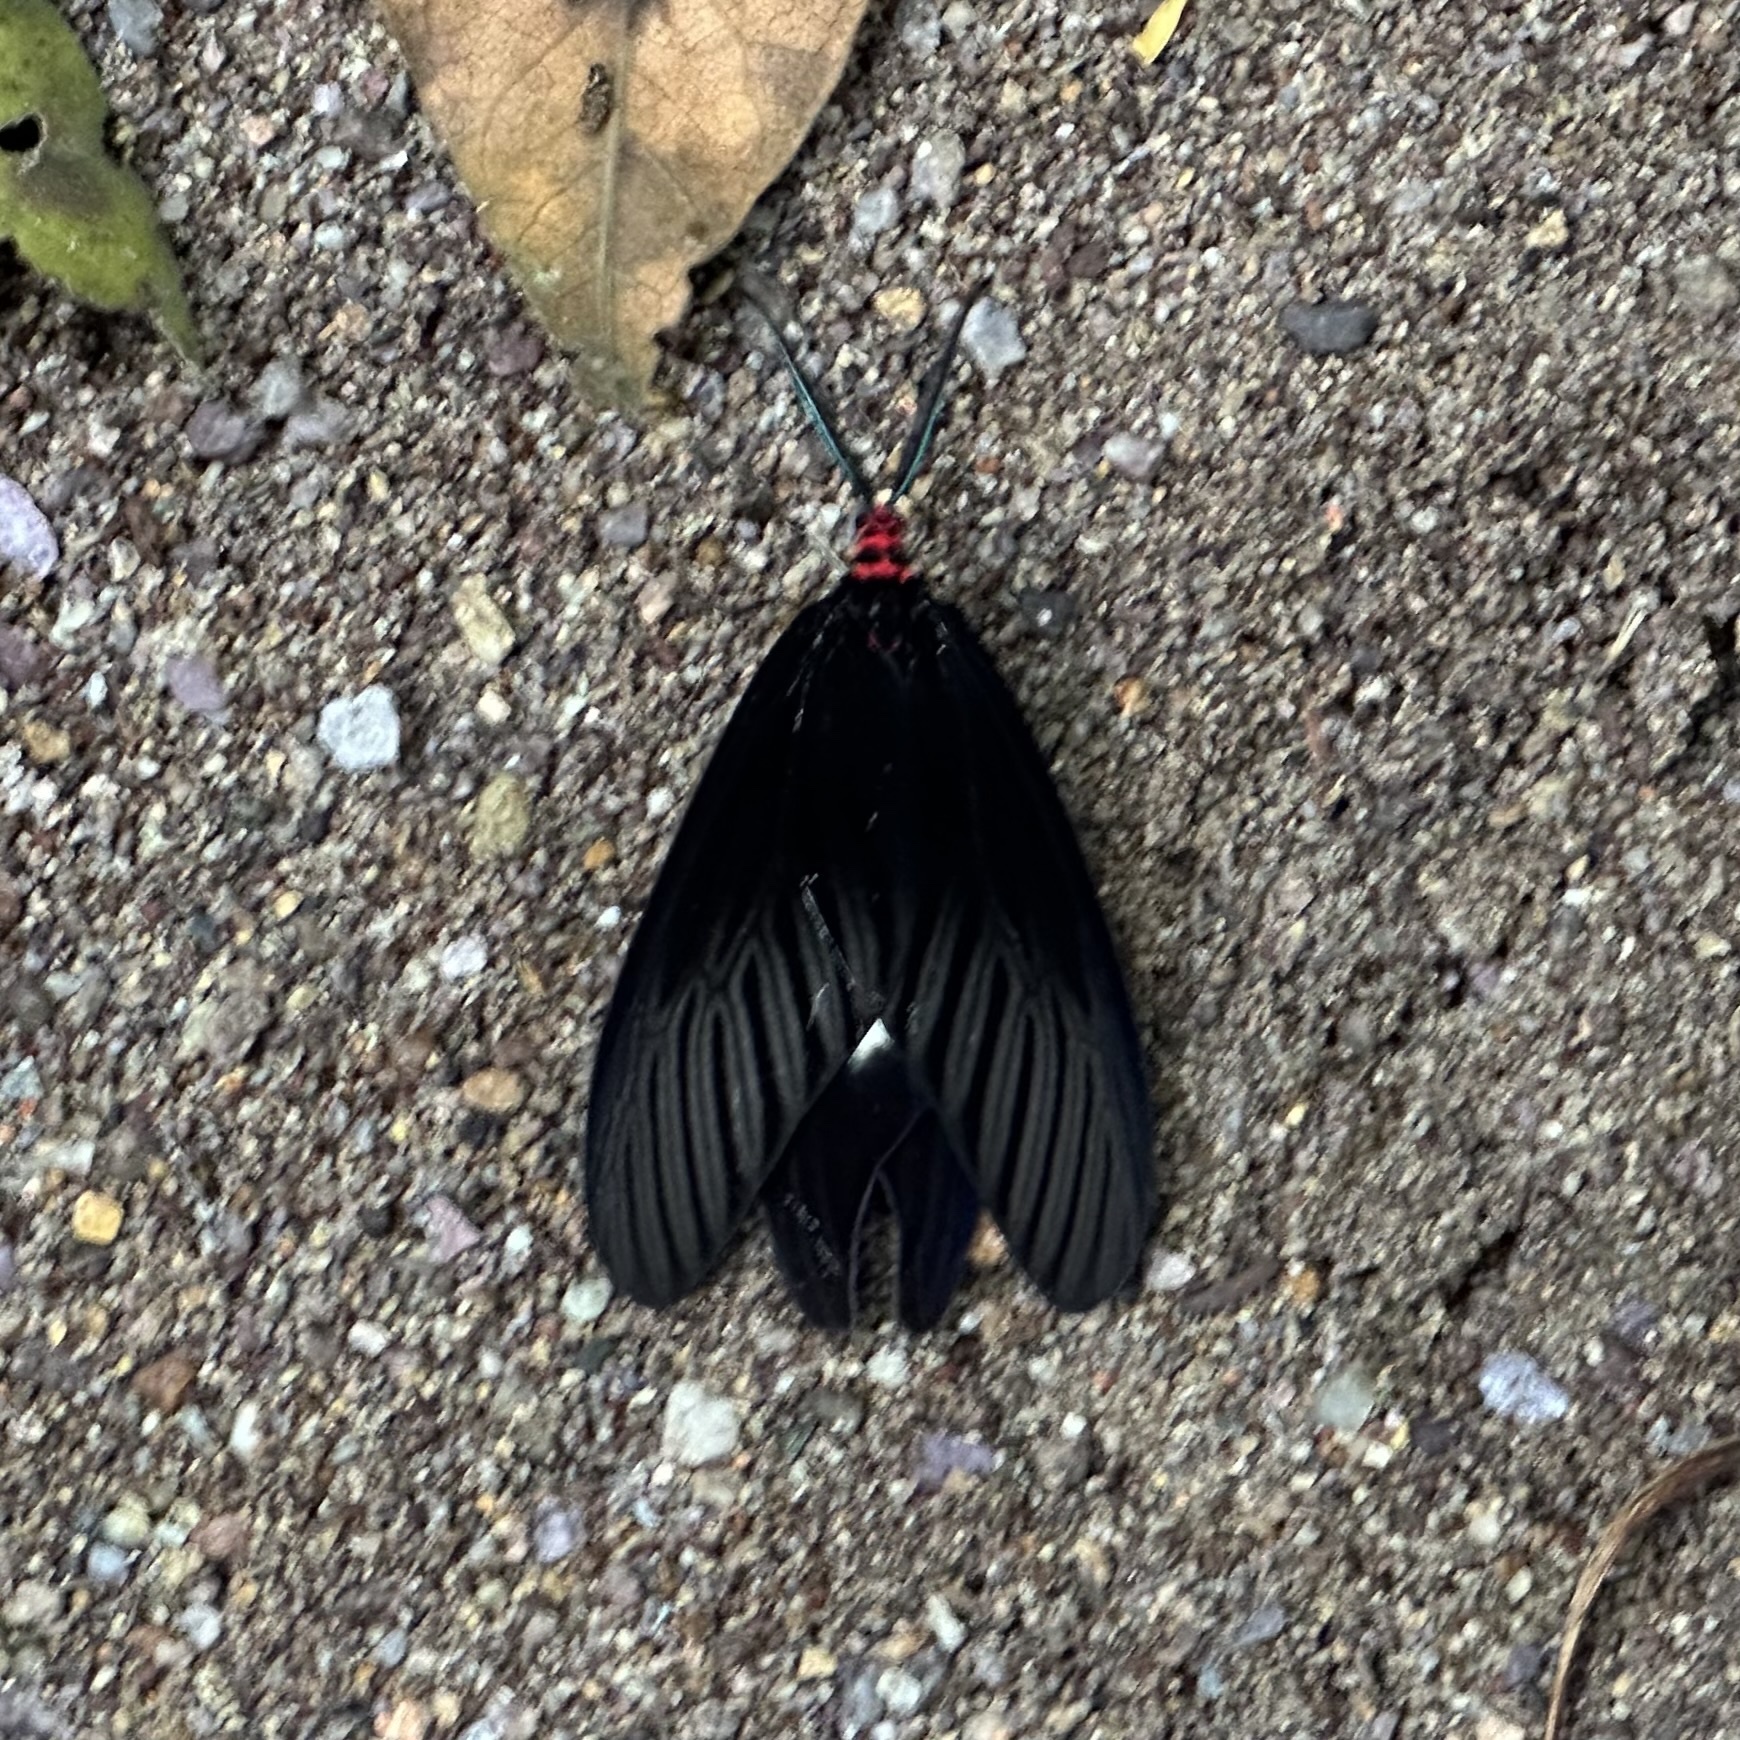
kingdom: Animalia
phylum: Arthropoda
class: Insecta
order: Lepidoptera
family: Zygaenidae
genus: Histia
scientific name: Histia flabellicornis
